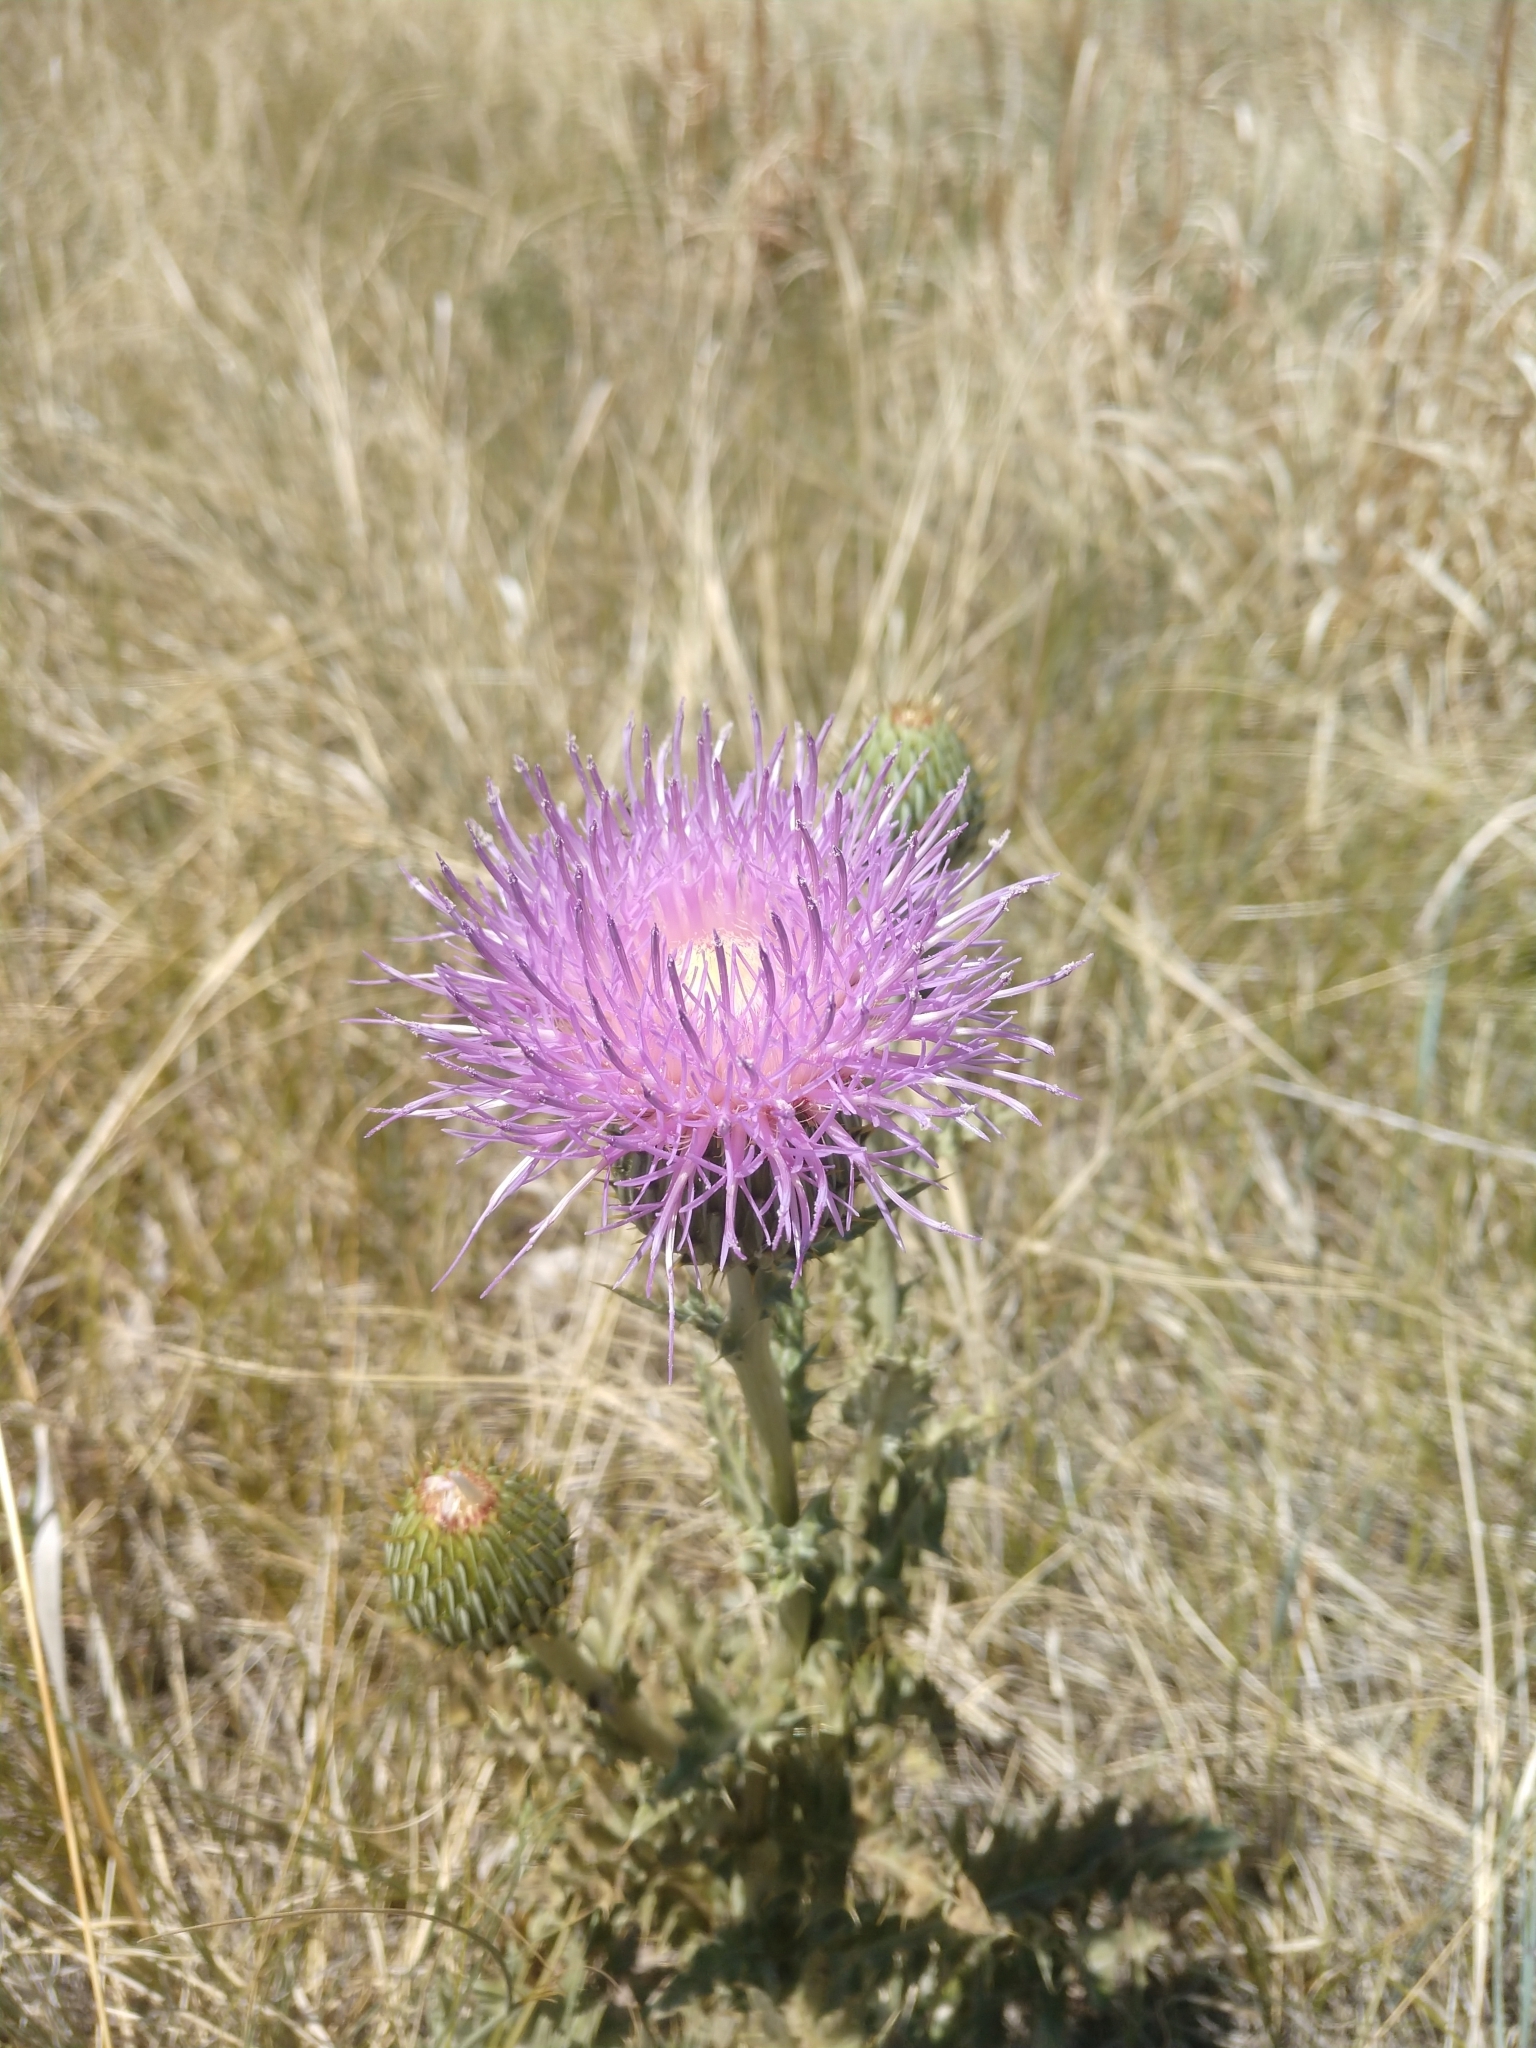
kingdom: Plantae
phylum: Tracheophyta
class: Magnoliopsida
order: Asterales
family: Asteraceae
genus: Cirsium
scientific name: Cirsium undulatum
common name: Pasture thistle
